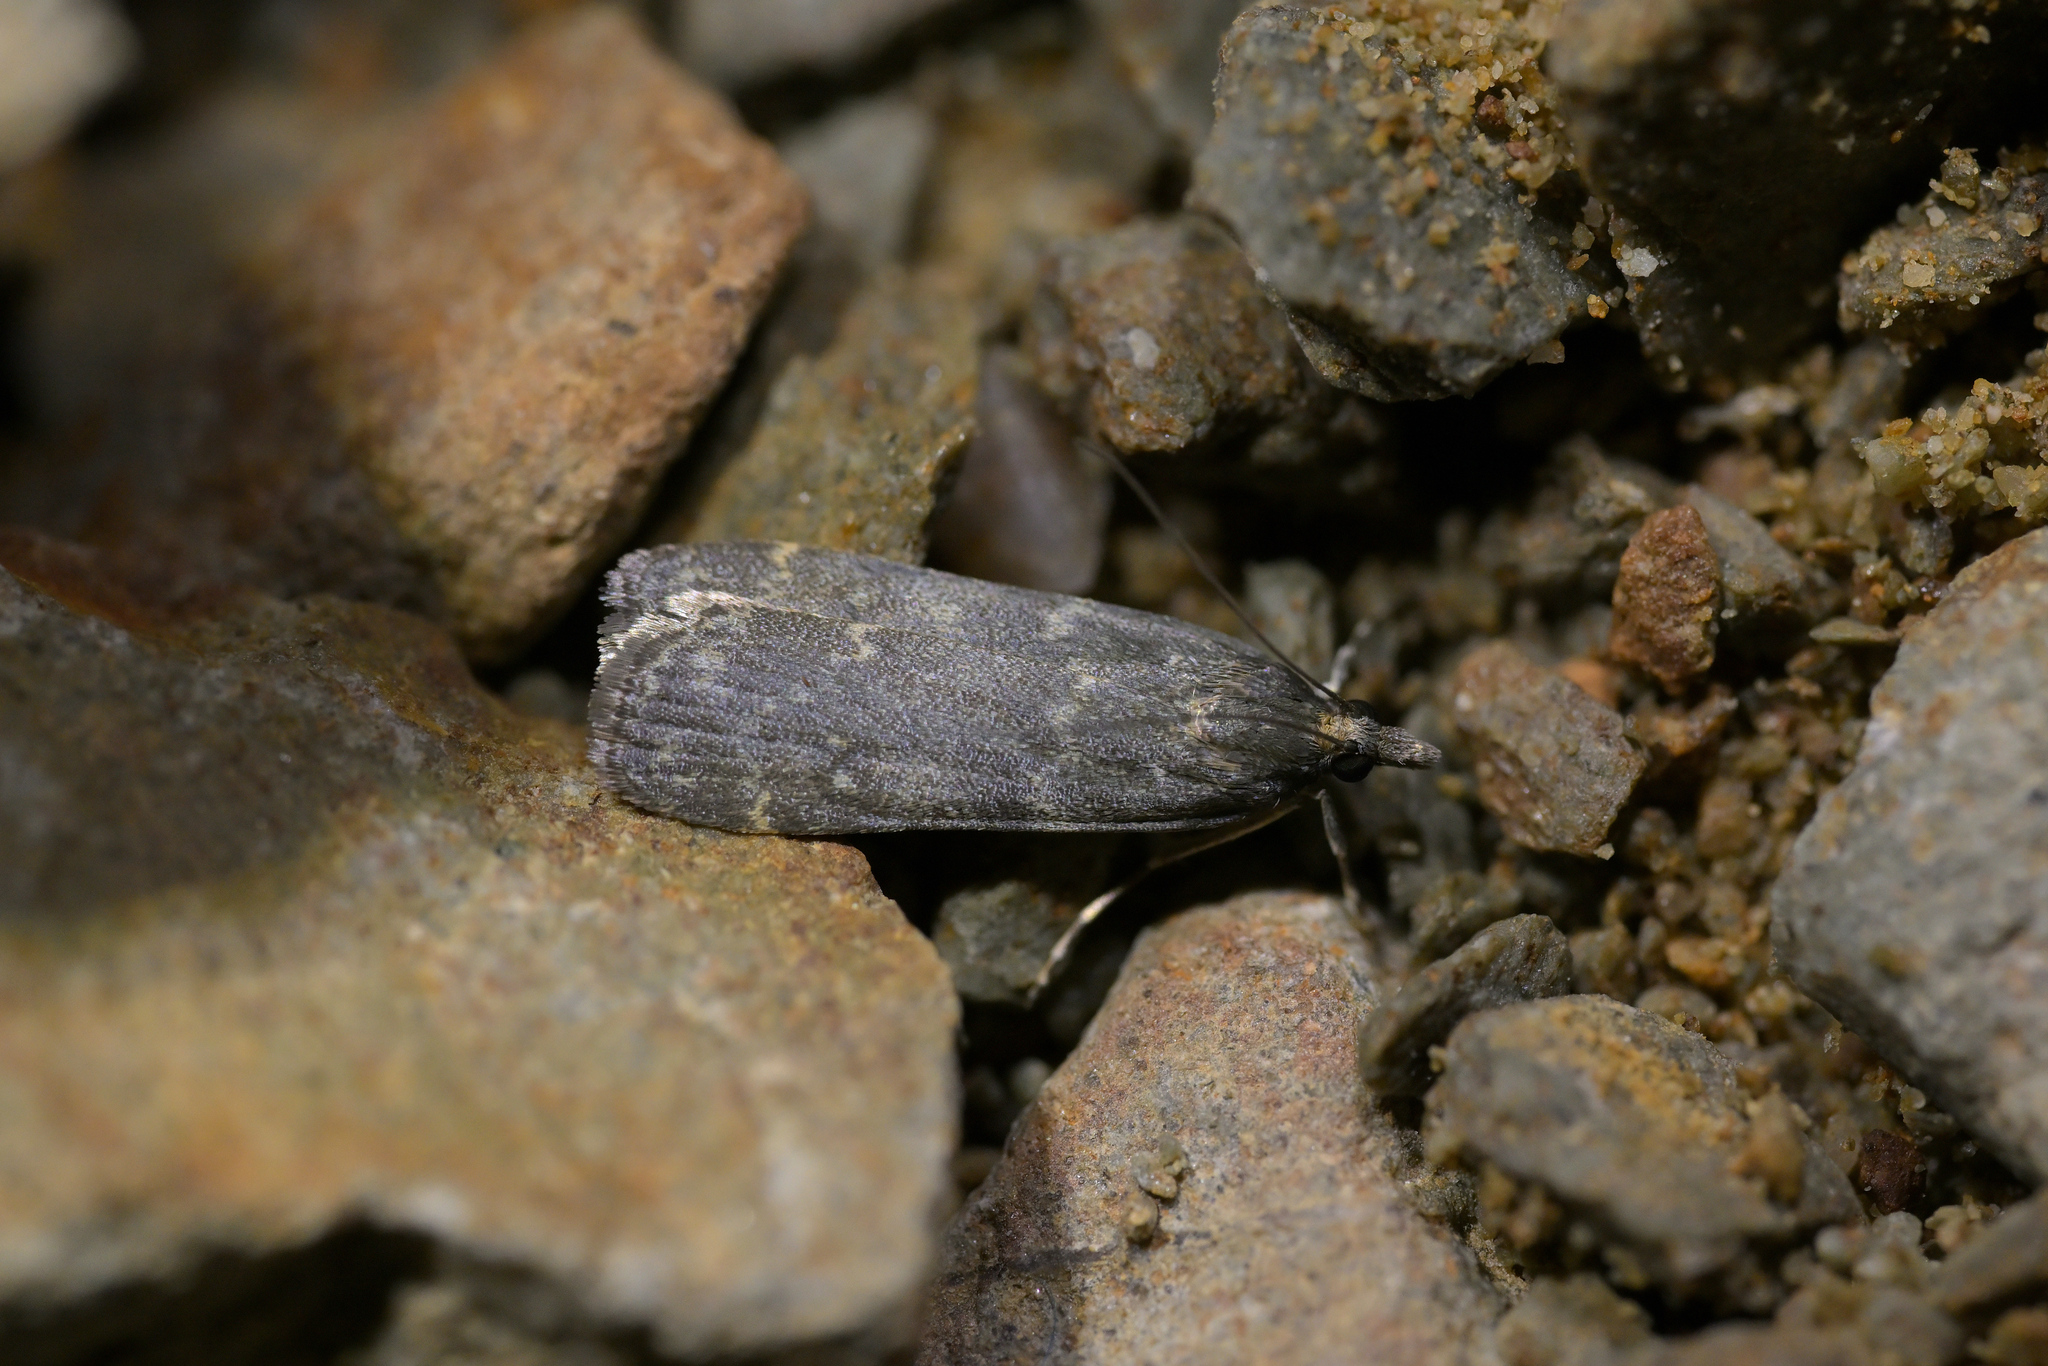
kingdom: Animalia
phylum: Arthropoda
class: Insecta
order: Lepidoptera
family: Crambidae
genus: Eudonia
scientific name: Eudonia cataxesta
